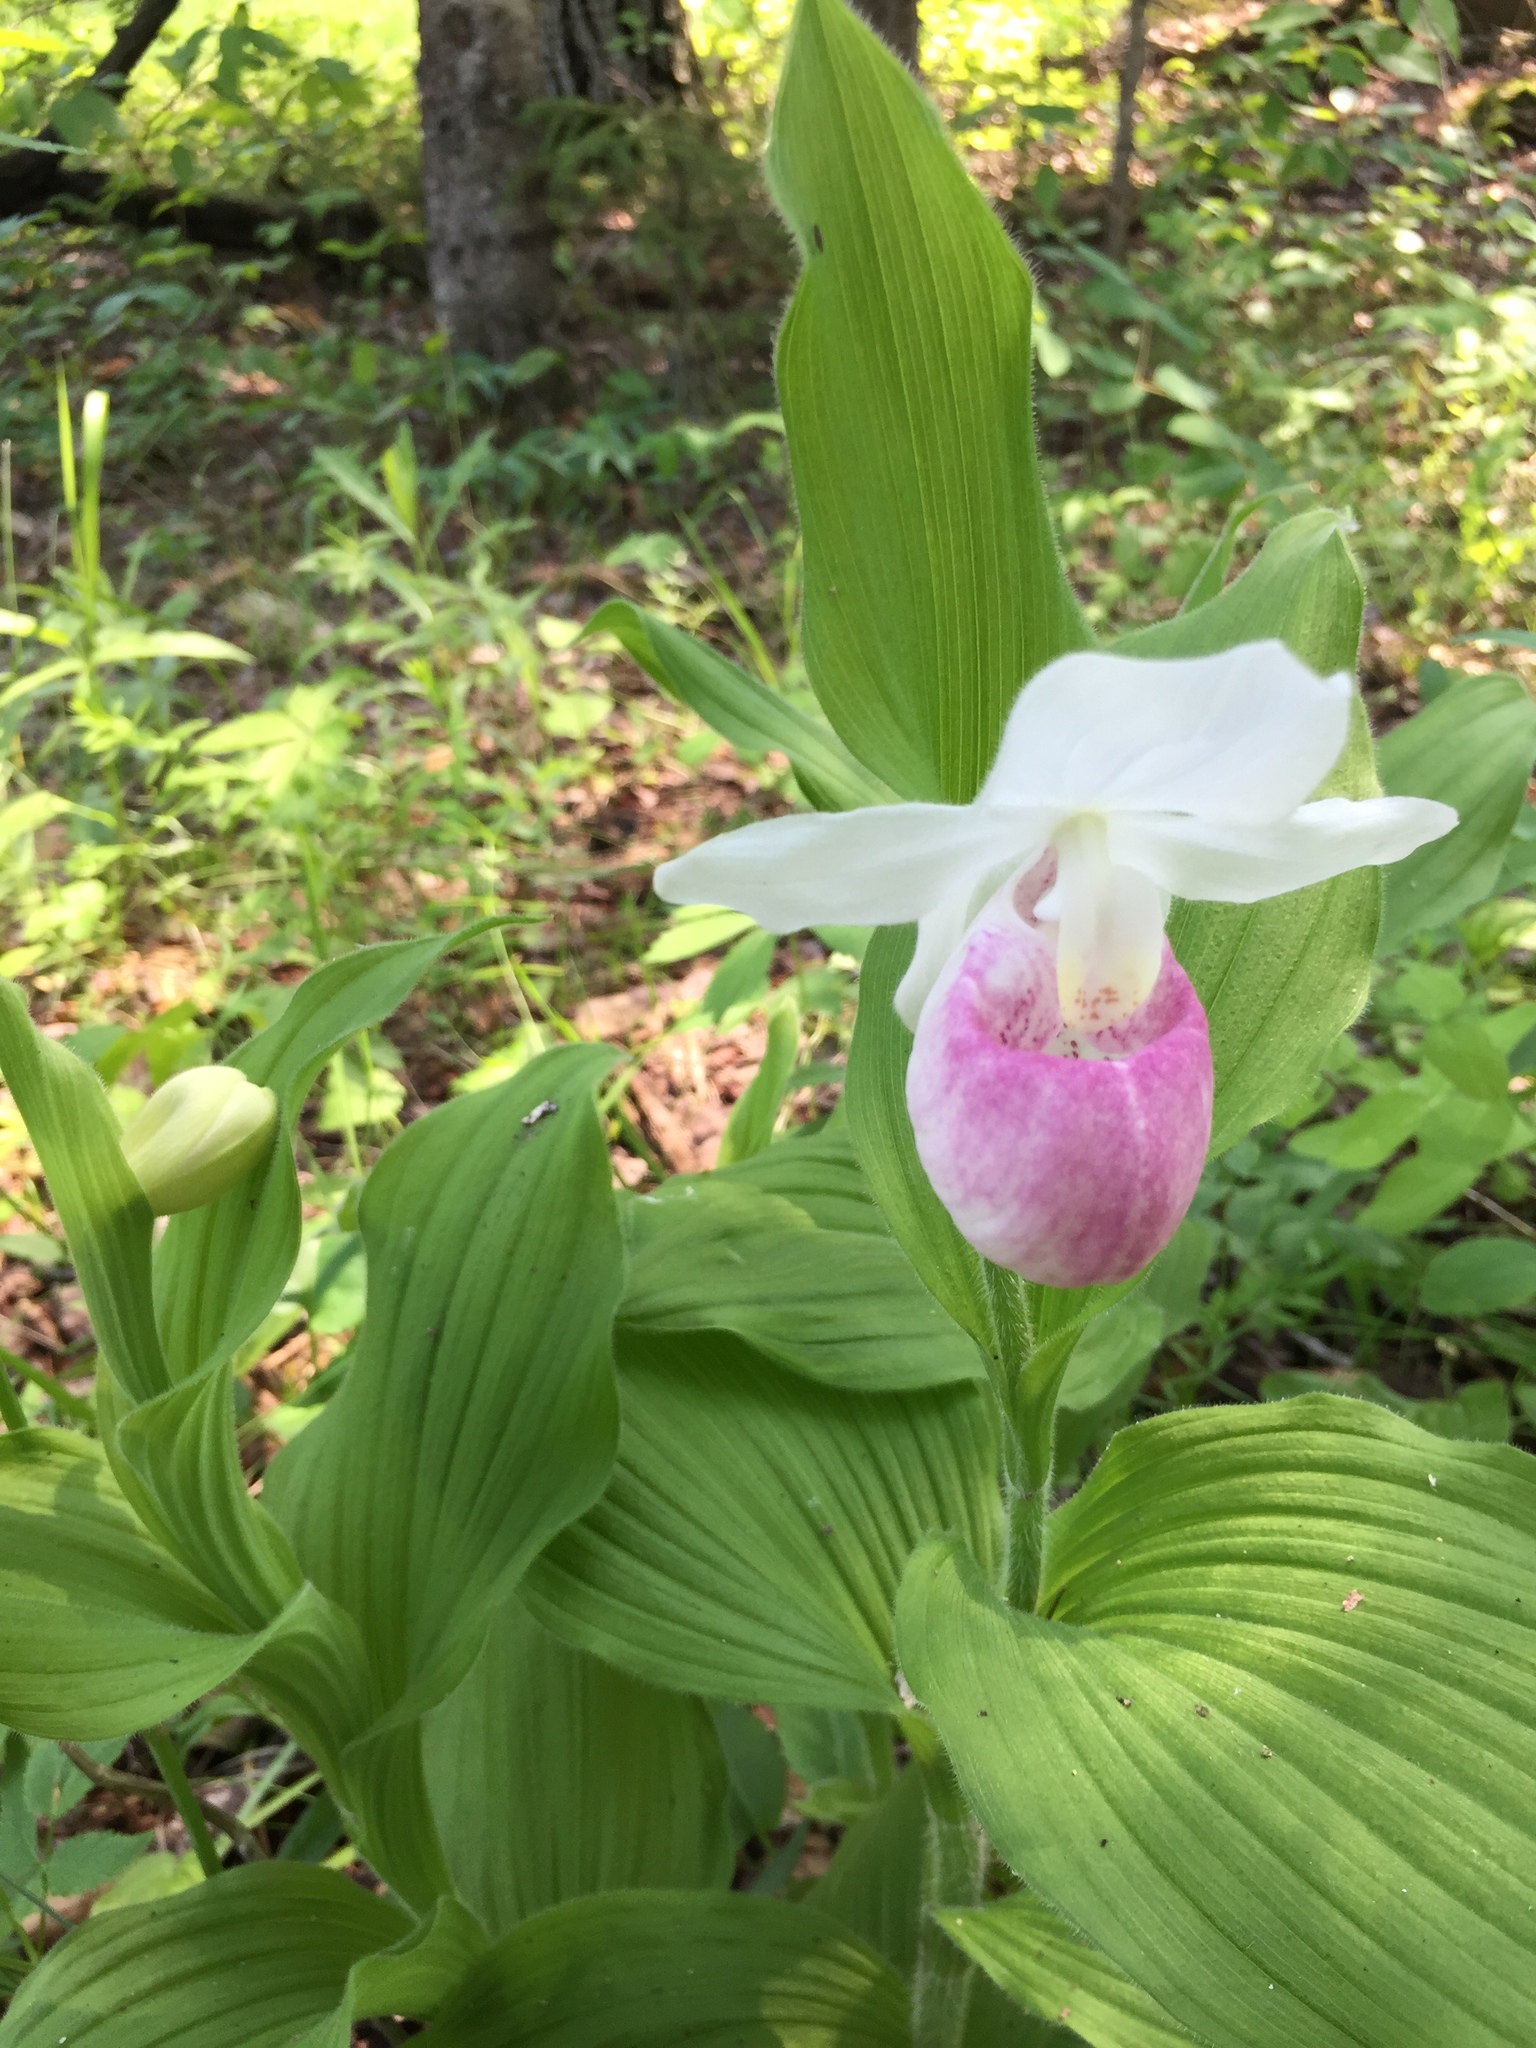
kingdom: Plantae
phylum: Tracheophyta
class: Liliopsida
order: Asparagales
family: Orchidaceae
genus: Cypripedium
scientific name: Cypripedium reginae
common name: Queen lady's-slipper
